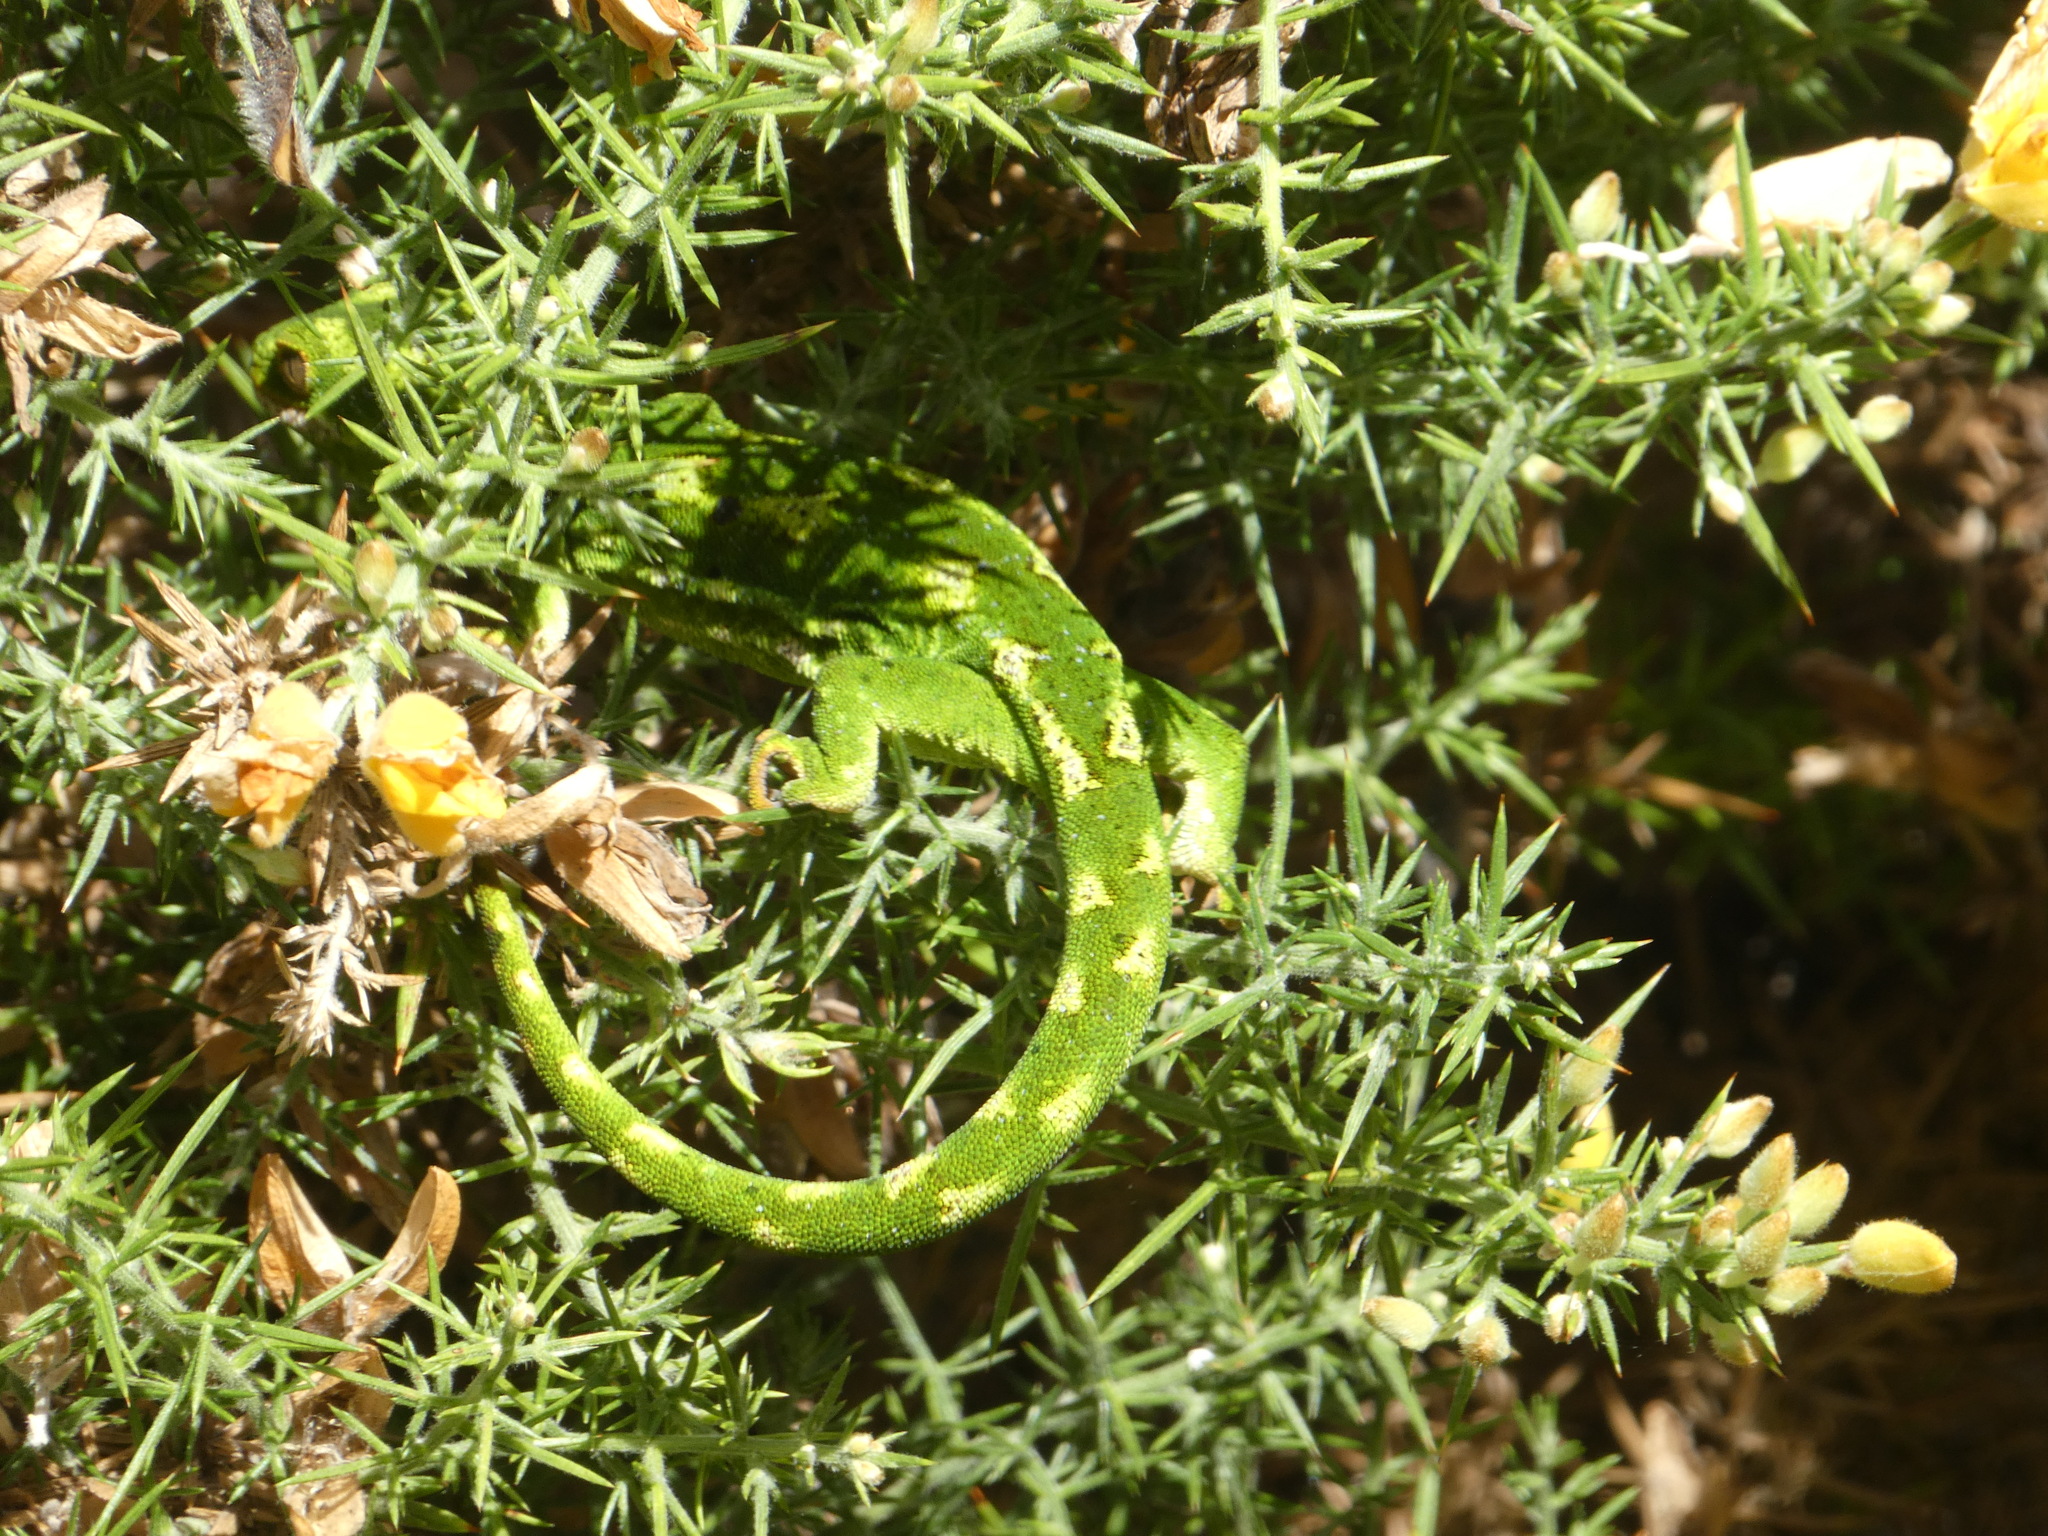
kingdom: Animalia
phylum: Chordata
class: Squamata
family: Diplodactylidae
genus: Naultinus
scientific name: Naultinus gemmeus
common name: Jewelled gecko
